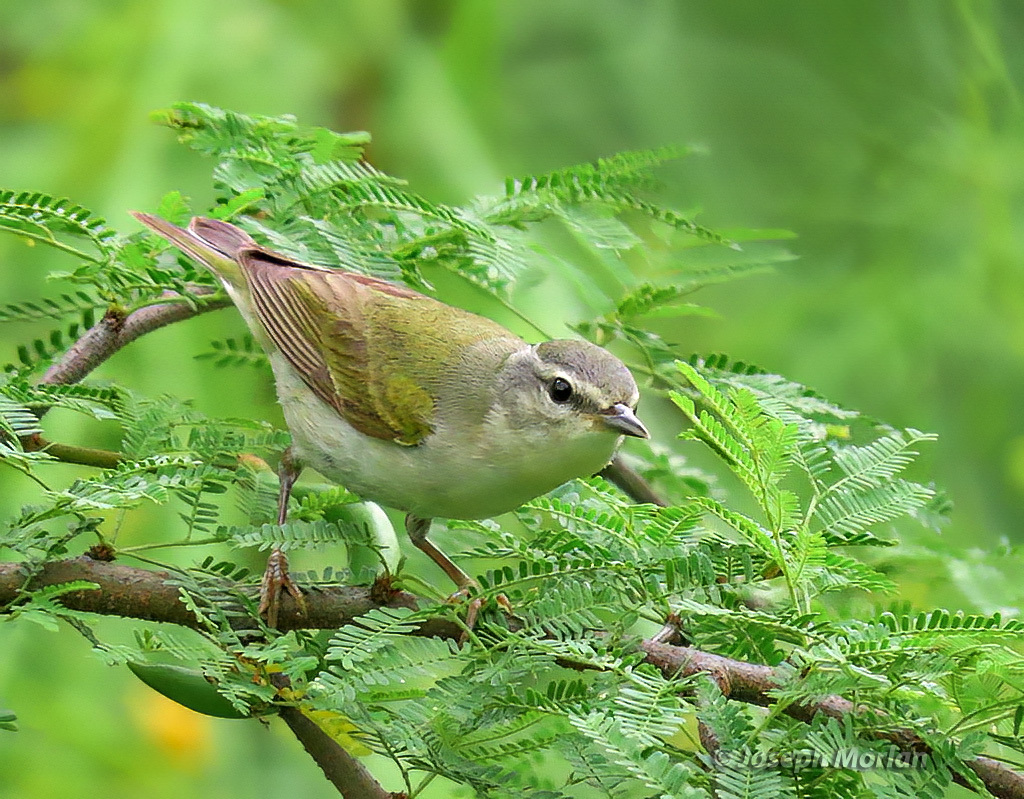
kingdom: Animalia
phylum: Chordata
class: Aves
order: Passeriformes
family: Parulidae
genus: Leiothlypis
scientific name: Leiothlypis peregrina
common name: Tennessee warbler
